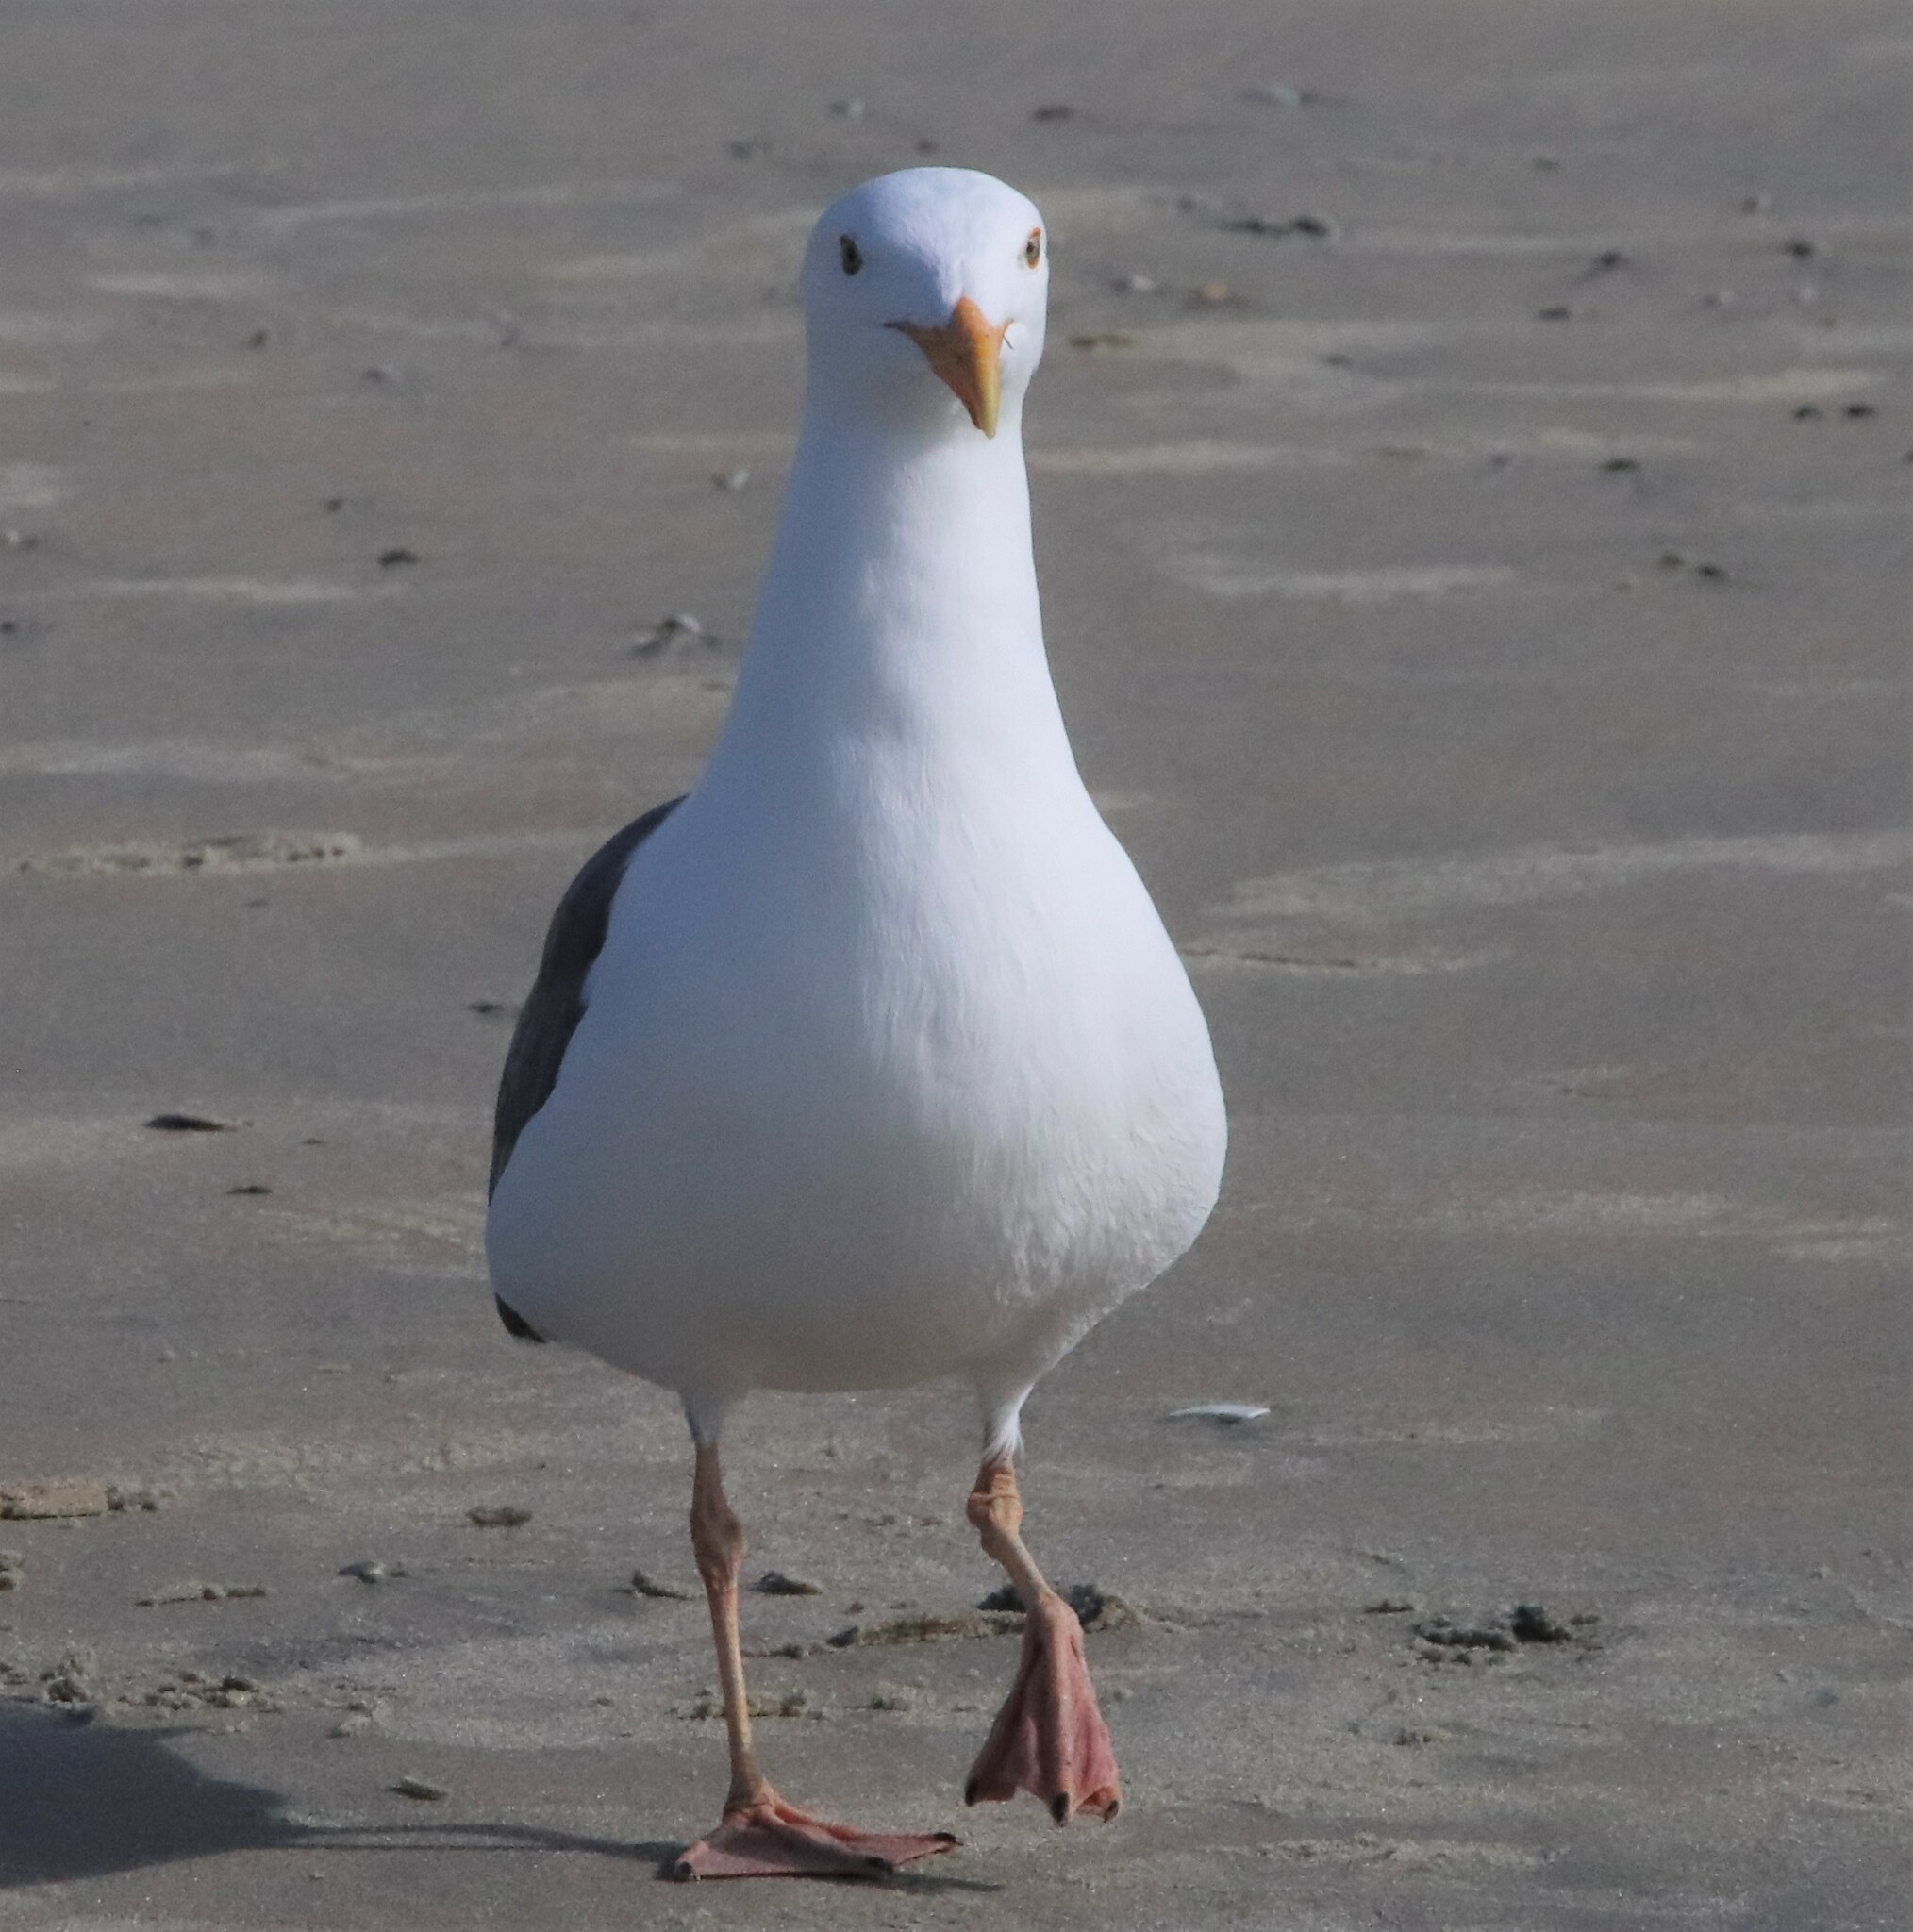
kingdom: Animalia
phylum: Chordata
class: Aves
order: Charadriiformes
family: Laridae
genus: Larus
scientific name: Larus occidentalis
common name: Western gull
